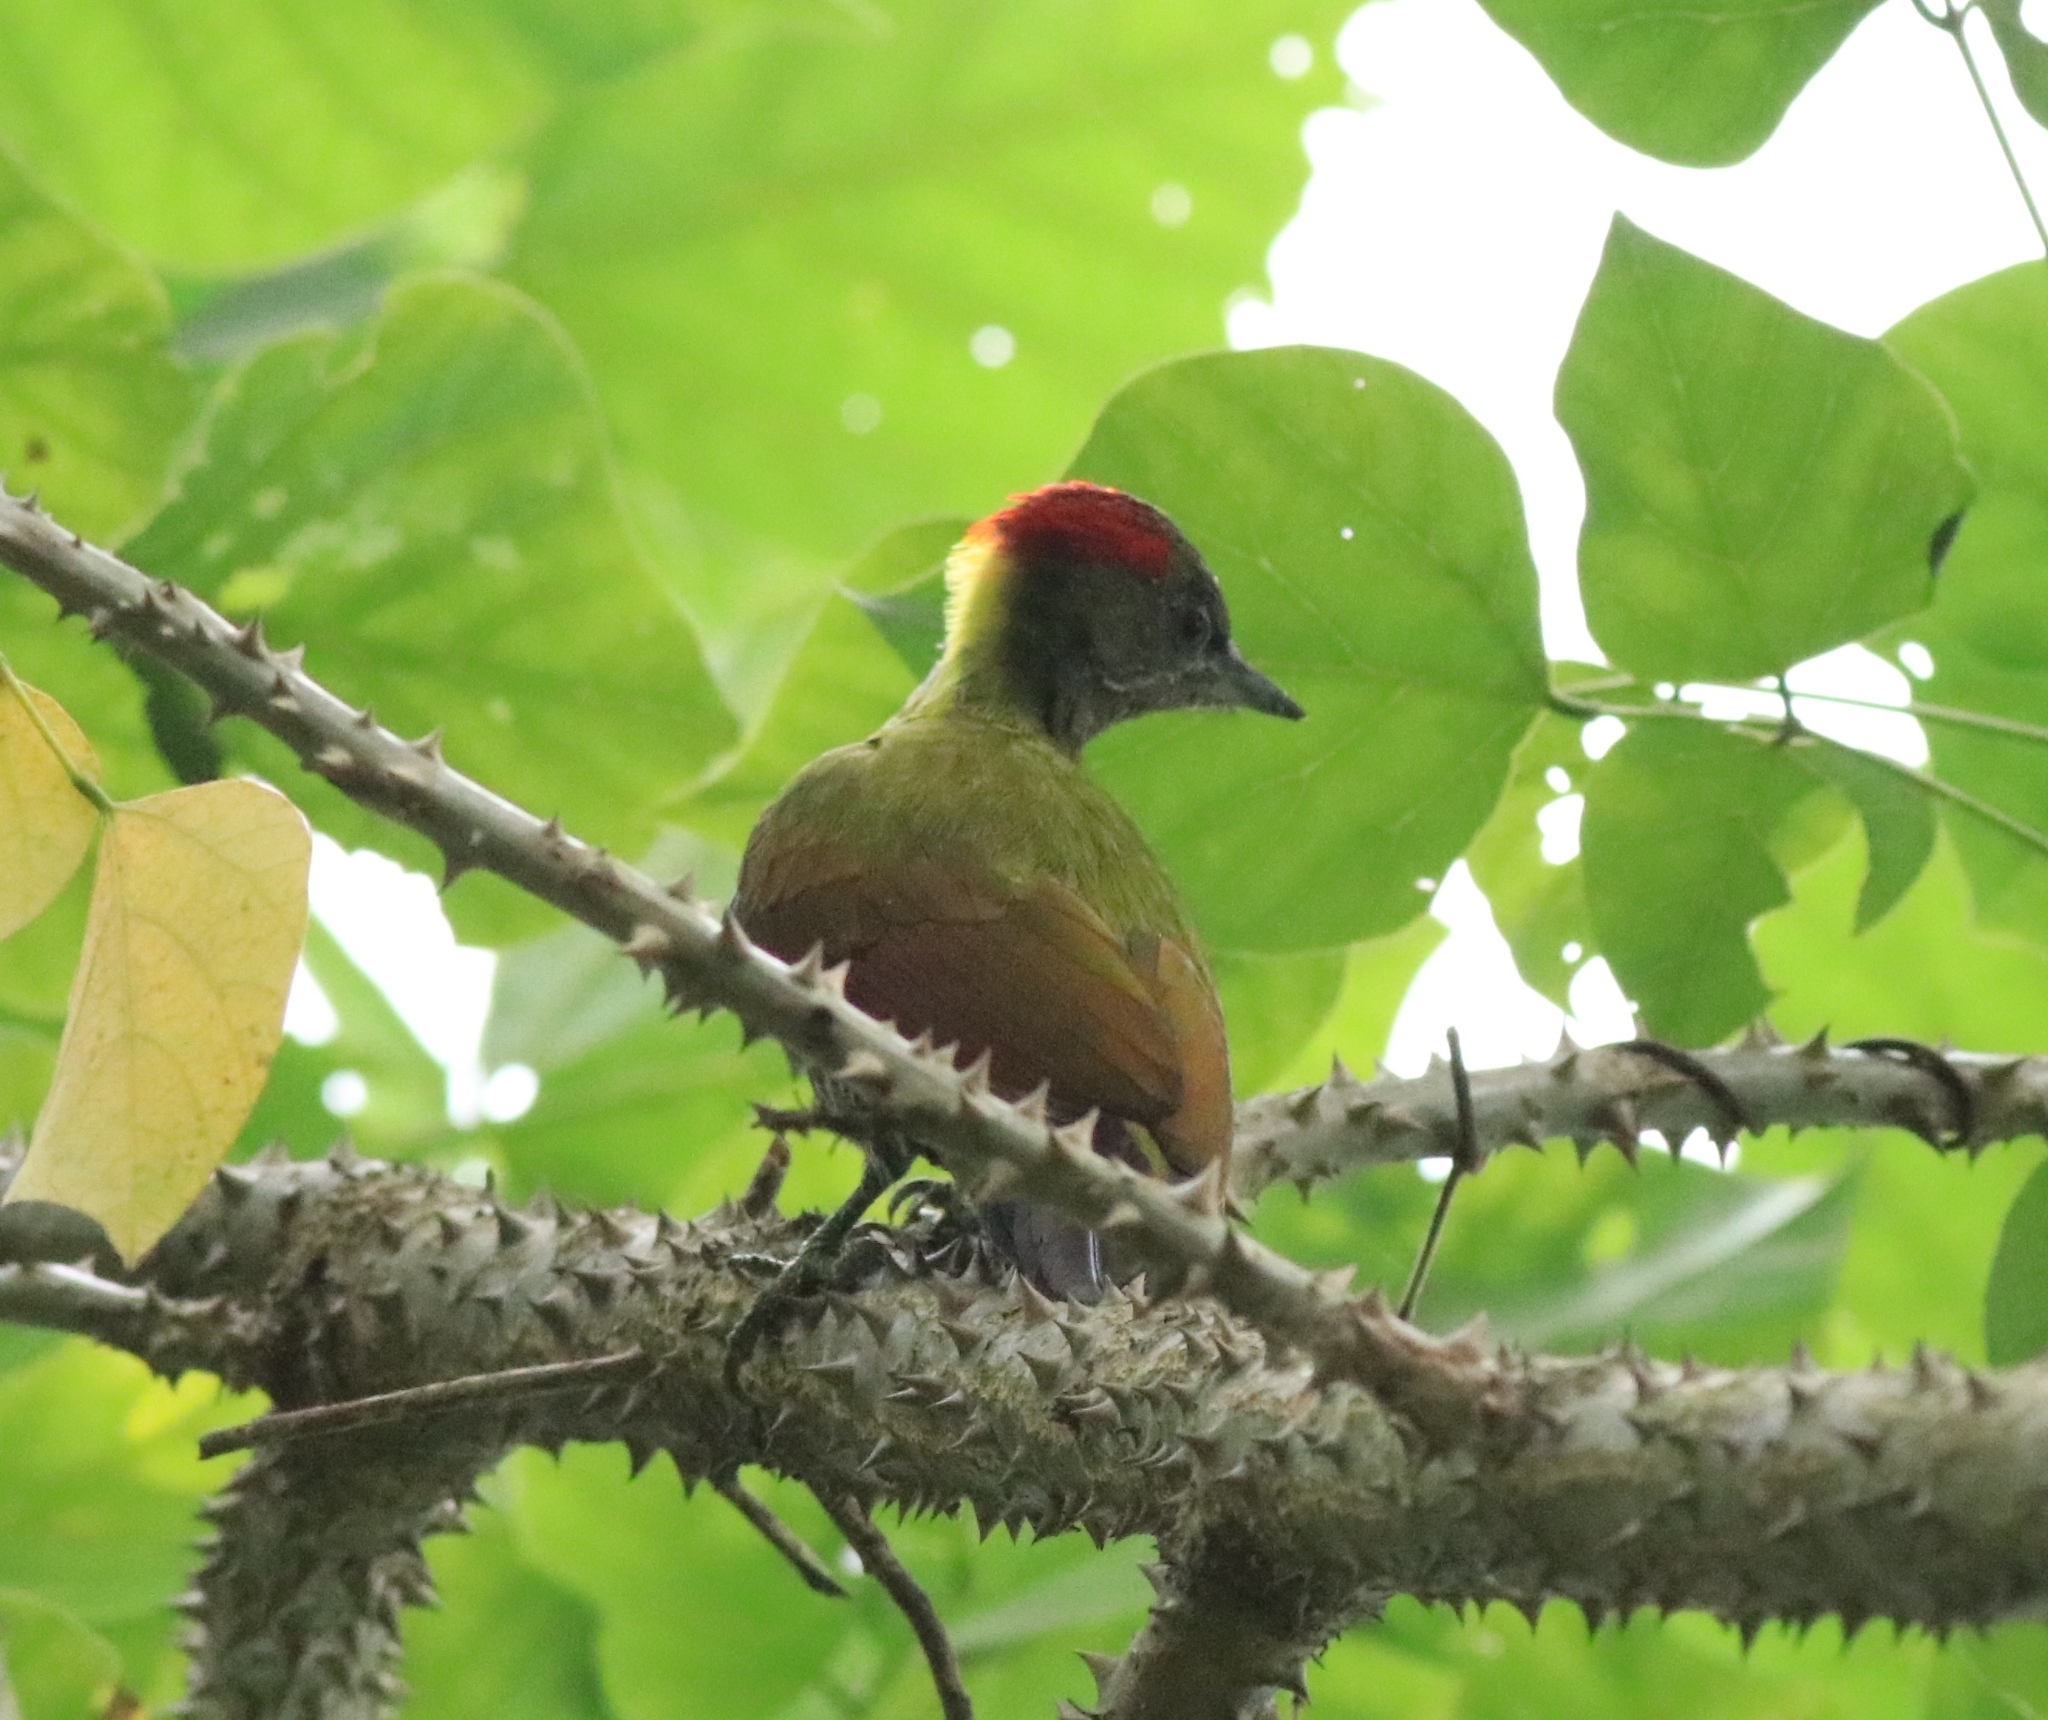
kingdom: Animalia
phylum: Chordata
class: Aves
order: Piciformes
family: Picidae
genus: Picus
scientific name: Picus chlorolophus
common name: Lesser yellownape
